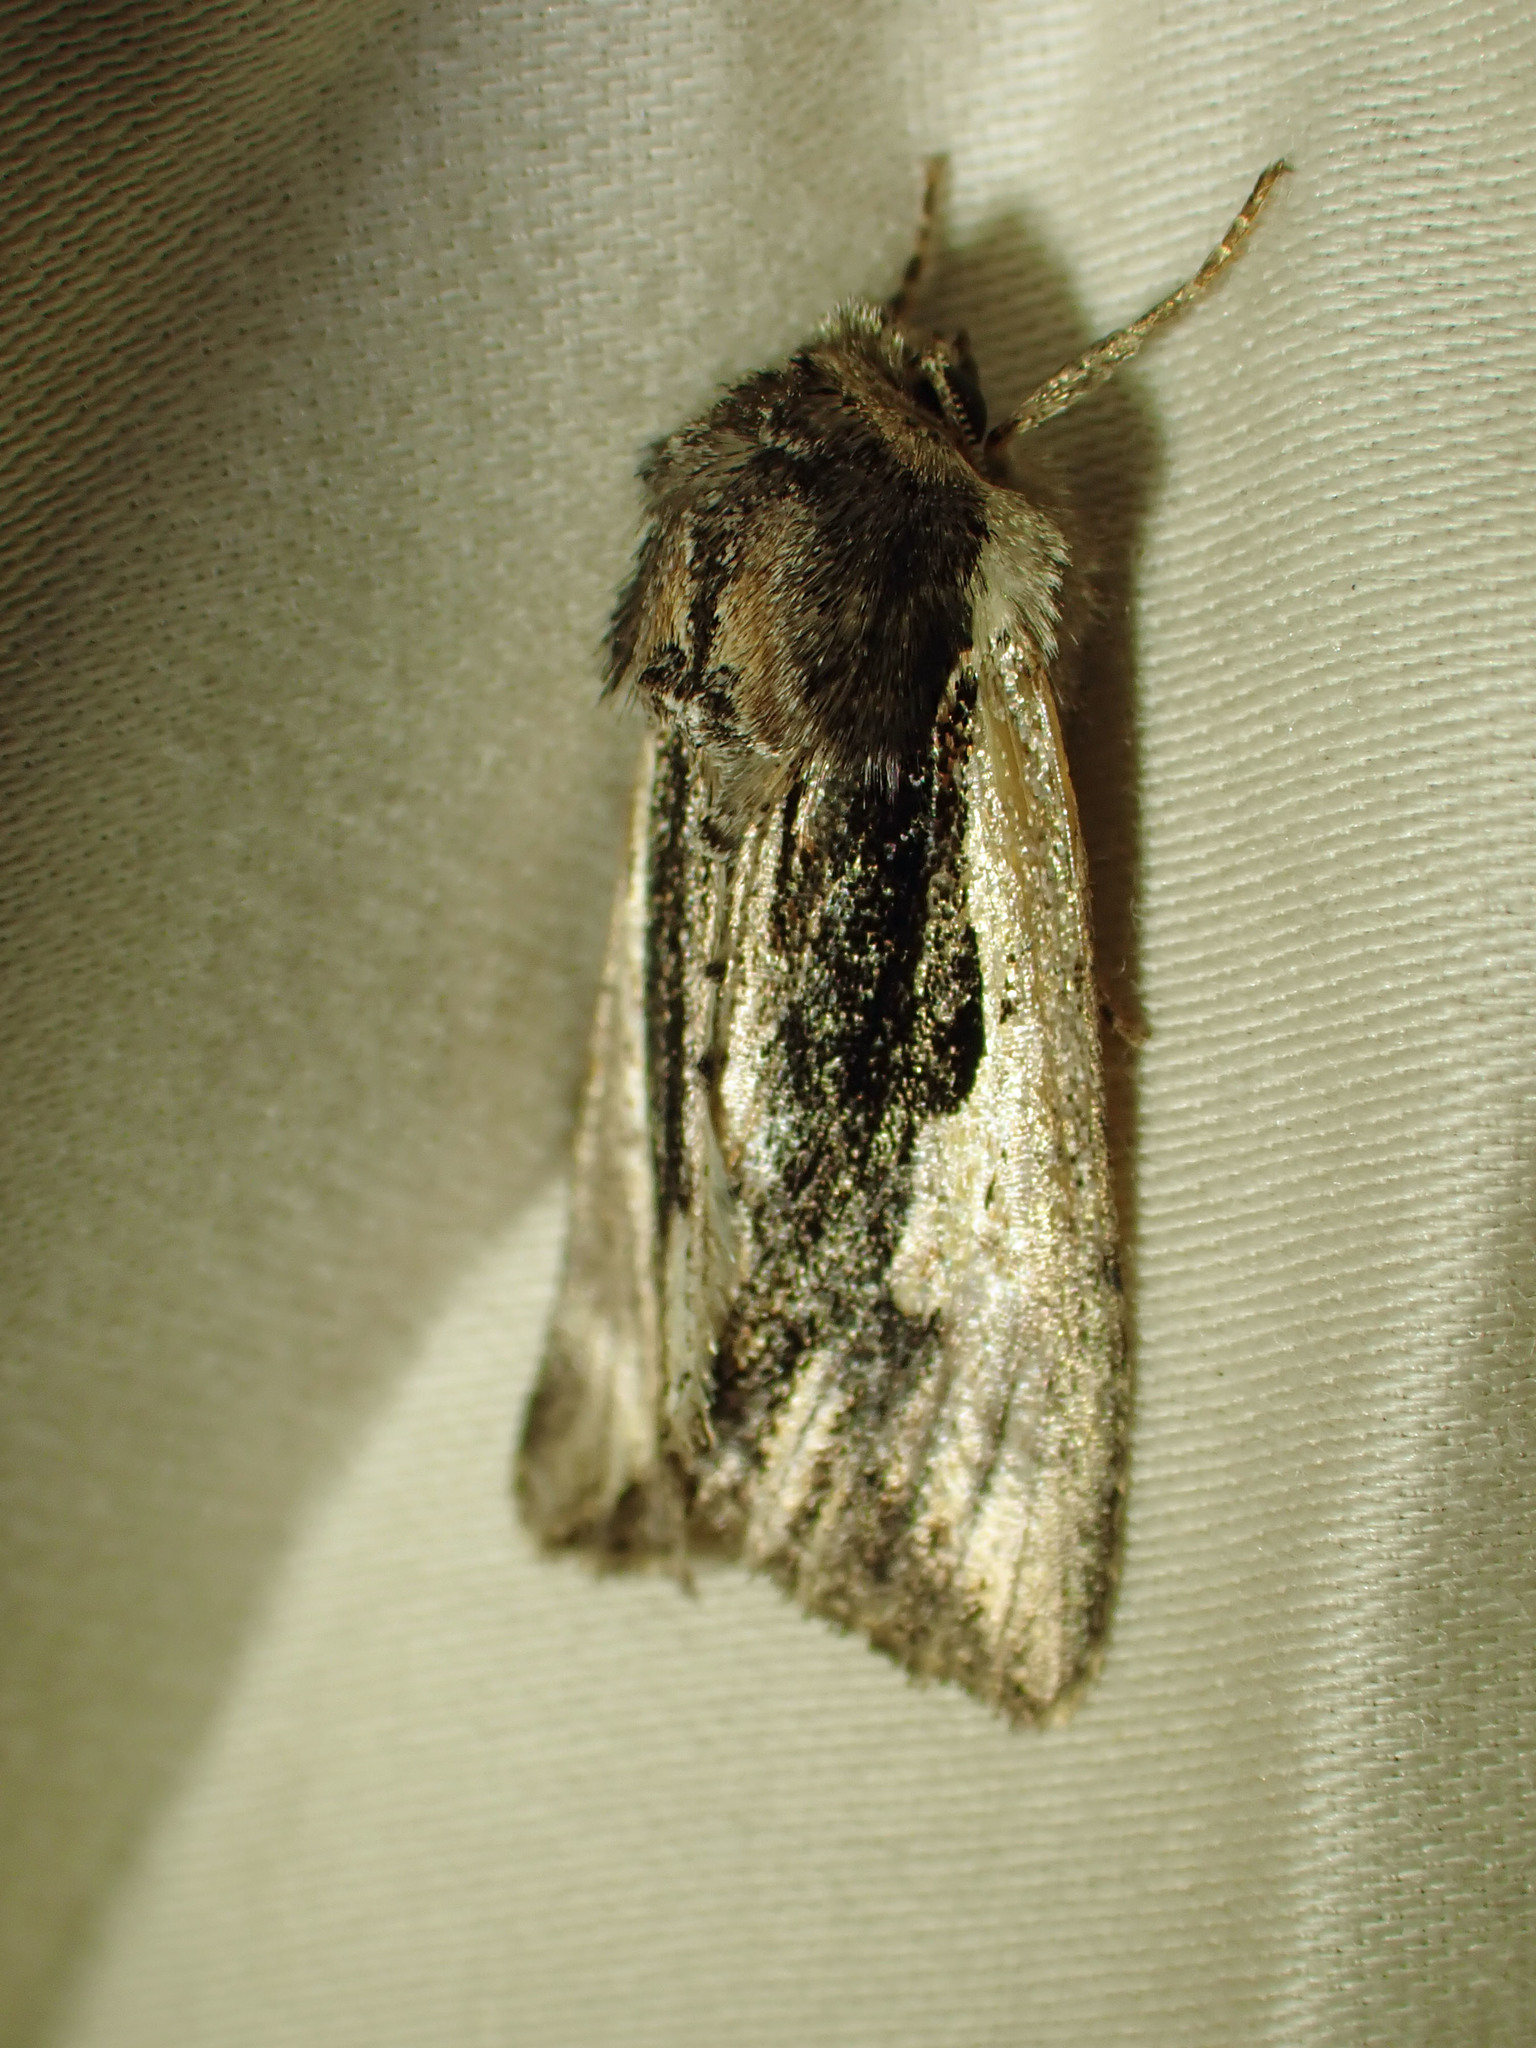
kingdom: Animalia
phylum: Arthropoda
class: Insecta
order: Lepidoptera
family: Noctuidae
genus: Achatia
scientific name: Achatia evicta
